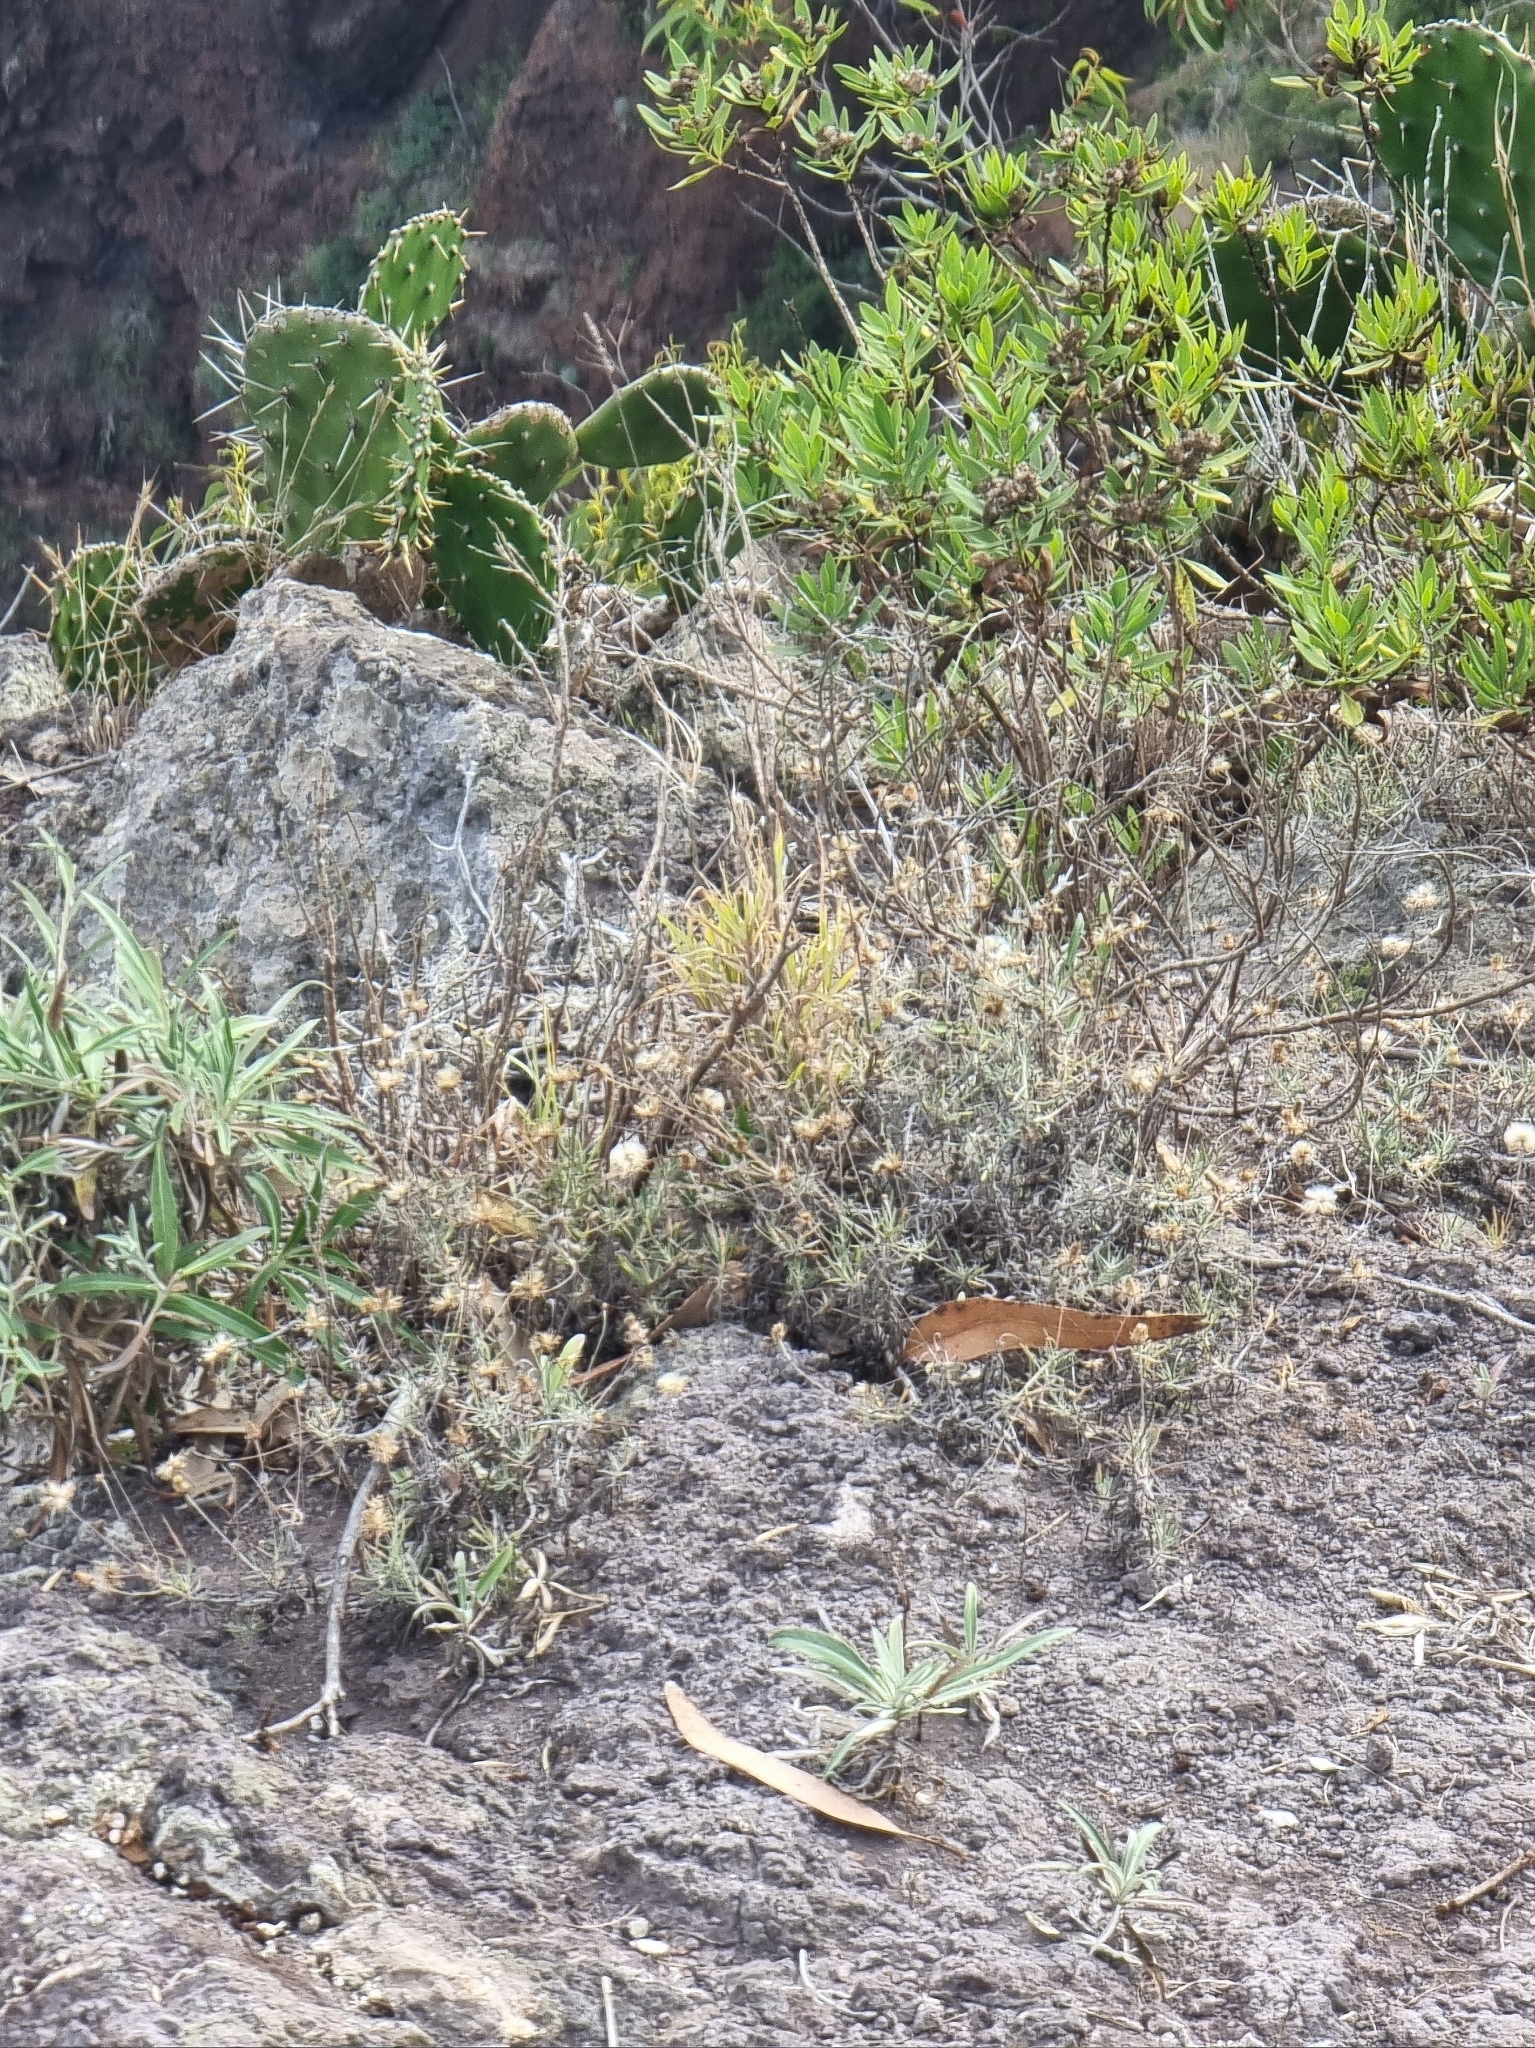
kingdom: Plantae
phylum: Tracheophyta
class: Magnoliopsida
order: Asterales
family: Asteraceae
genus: Phagnalon
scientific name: Phagnalon saxatile
